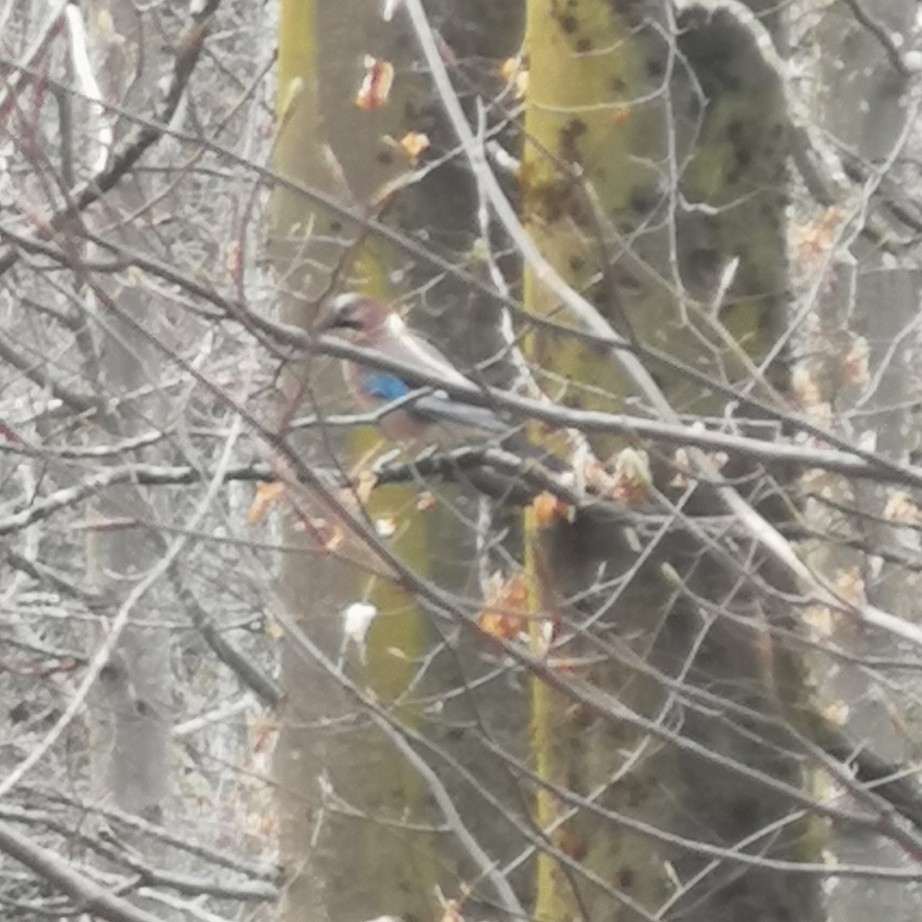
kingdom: Animalia
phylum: Chordata
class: Aves
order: Passeriformes
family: Corvidae
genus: Garrulus
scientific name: Garrulus glandarius
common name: Eurasian jay
